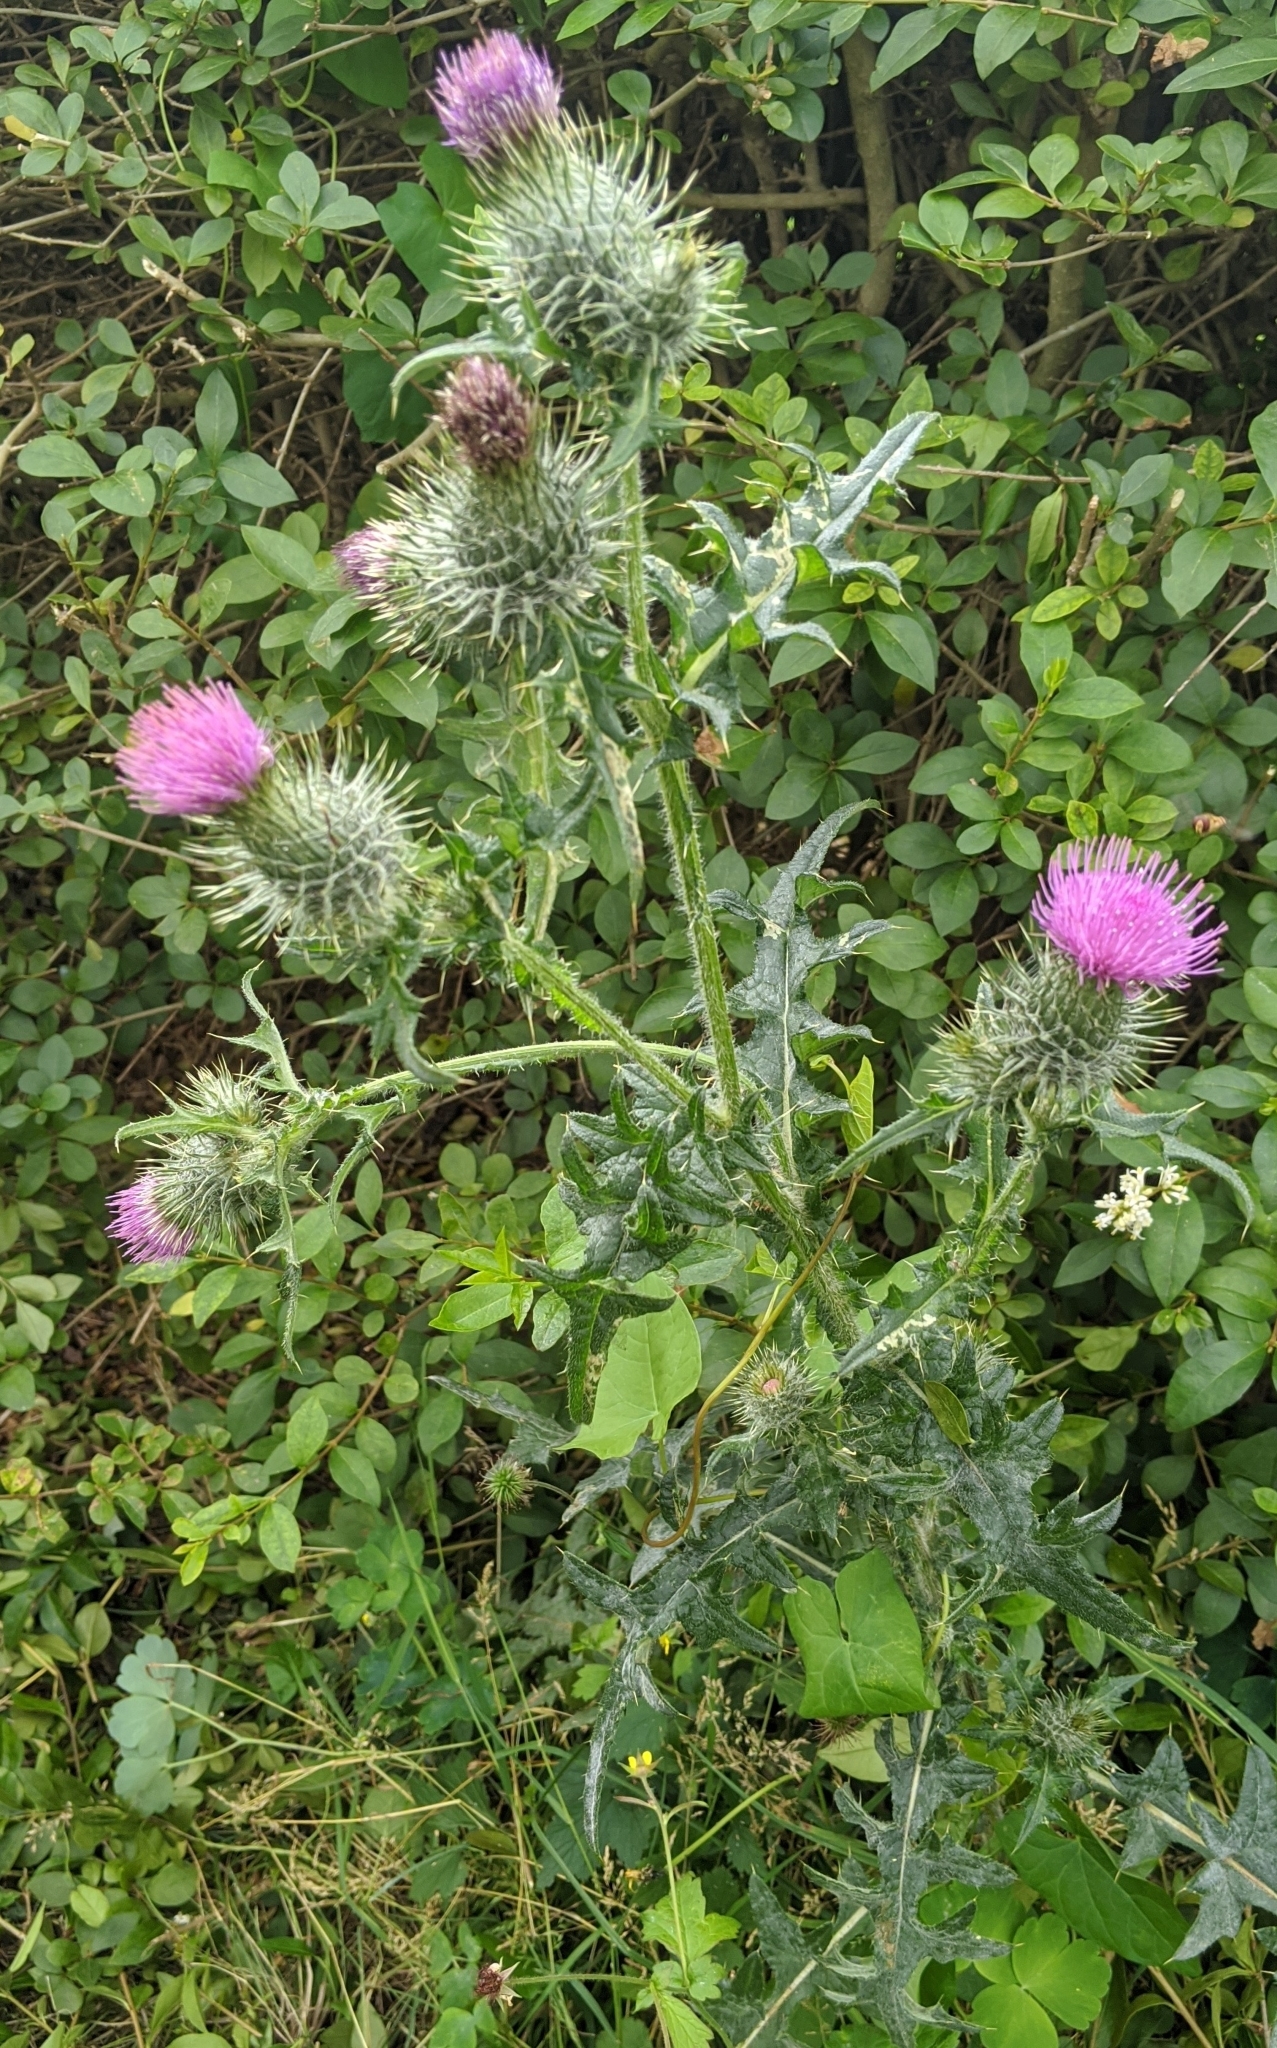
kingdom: Plantae
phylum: Tracheophyta
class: Magnoliopsida
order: Asterales
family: Asteraceae
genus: Cirsium
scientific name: Cirsium vulgare
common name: Bull thistle
